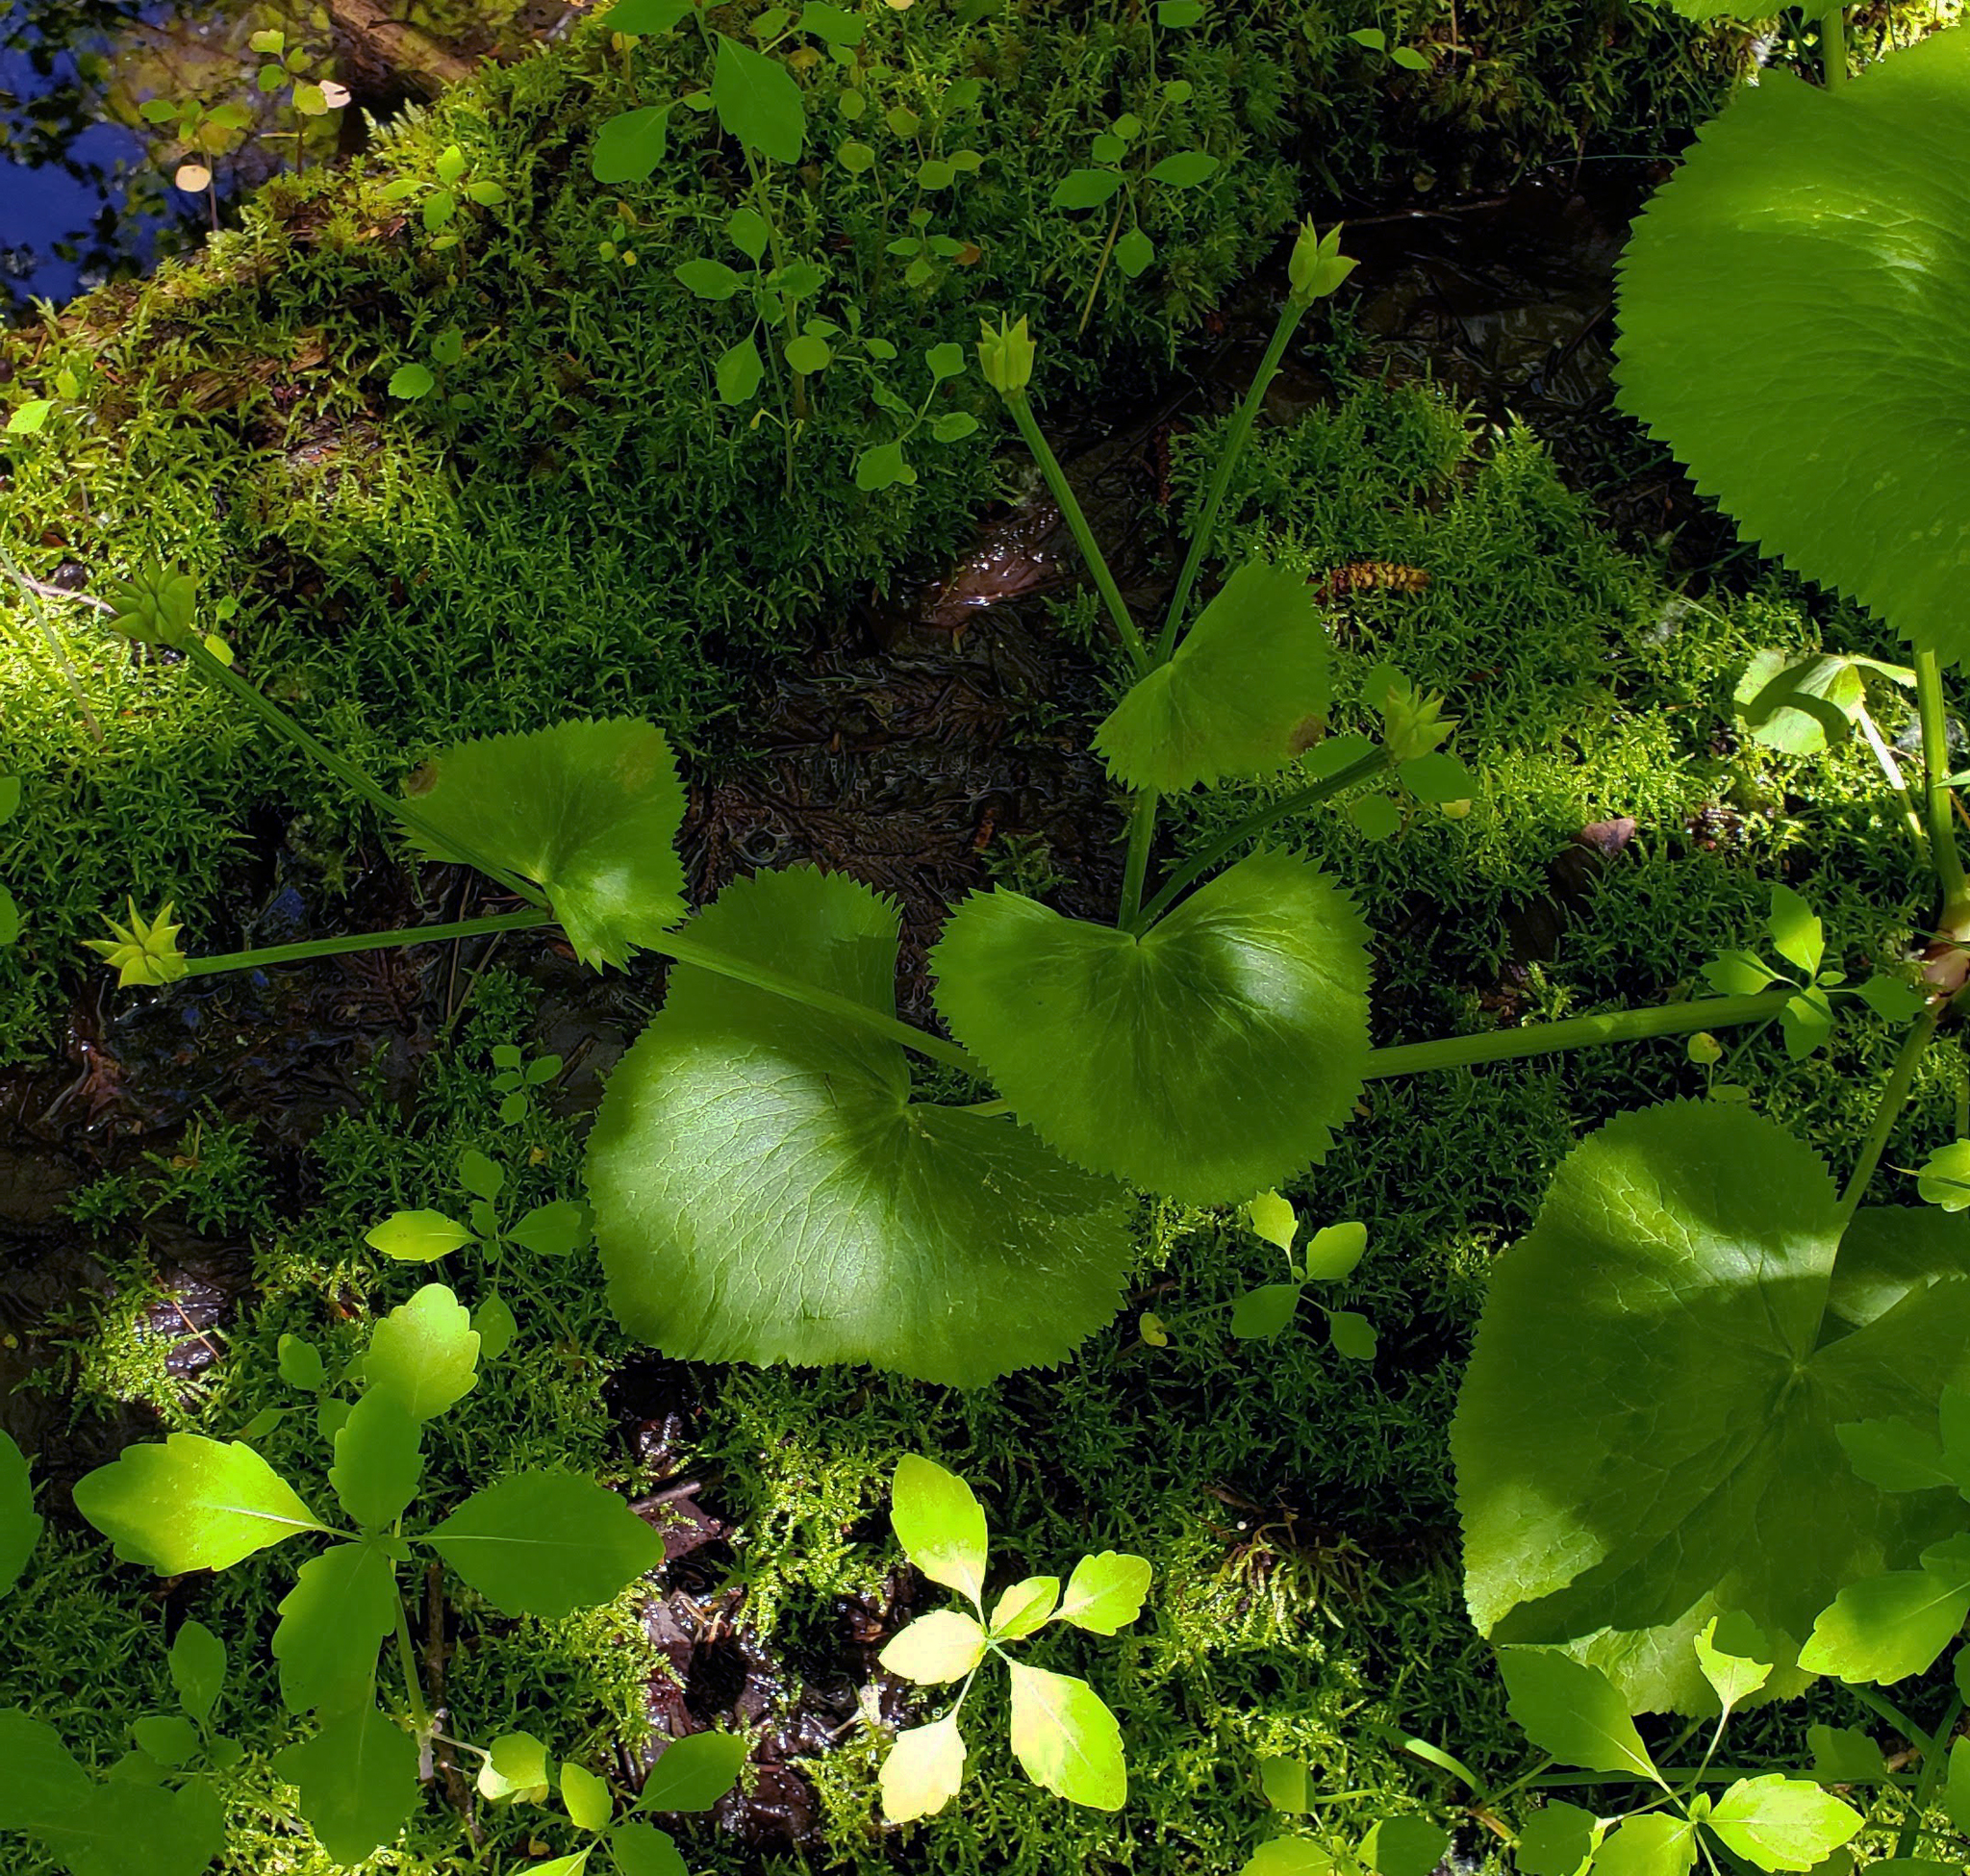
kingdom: Plantae
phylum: Tracheophyta
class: Magnoliopsida
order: Ranunculales
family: Ranunculaceae
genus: Caltha
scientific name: Caltha palustris
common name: Marsh marigold
